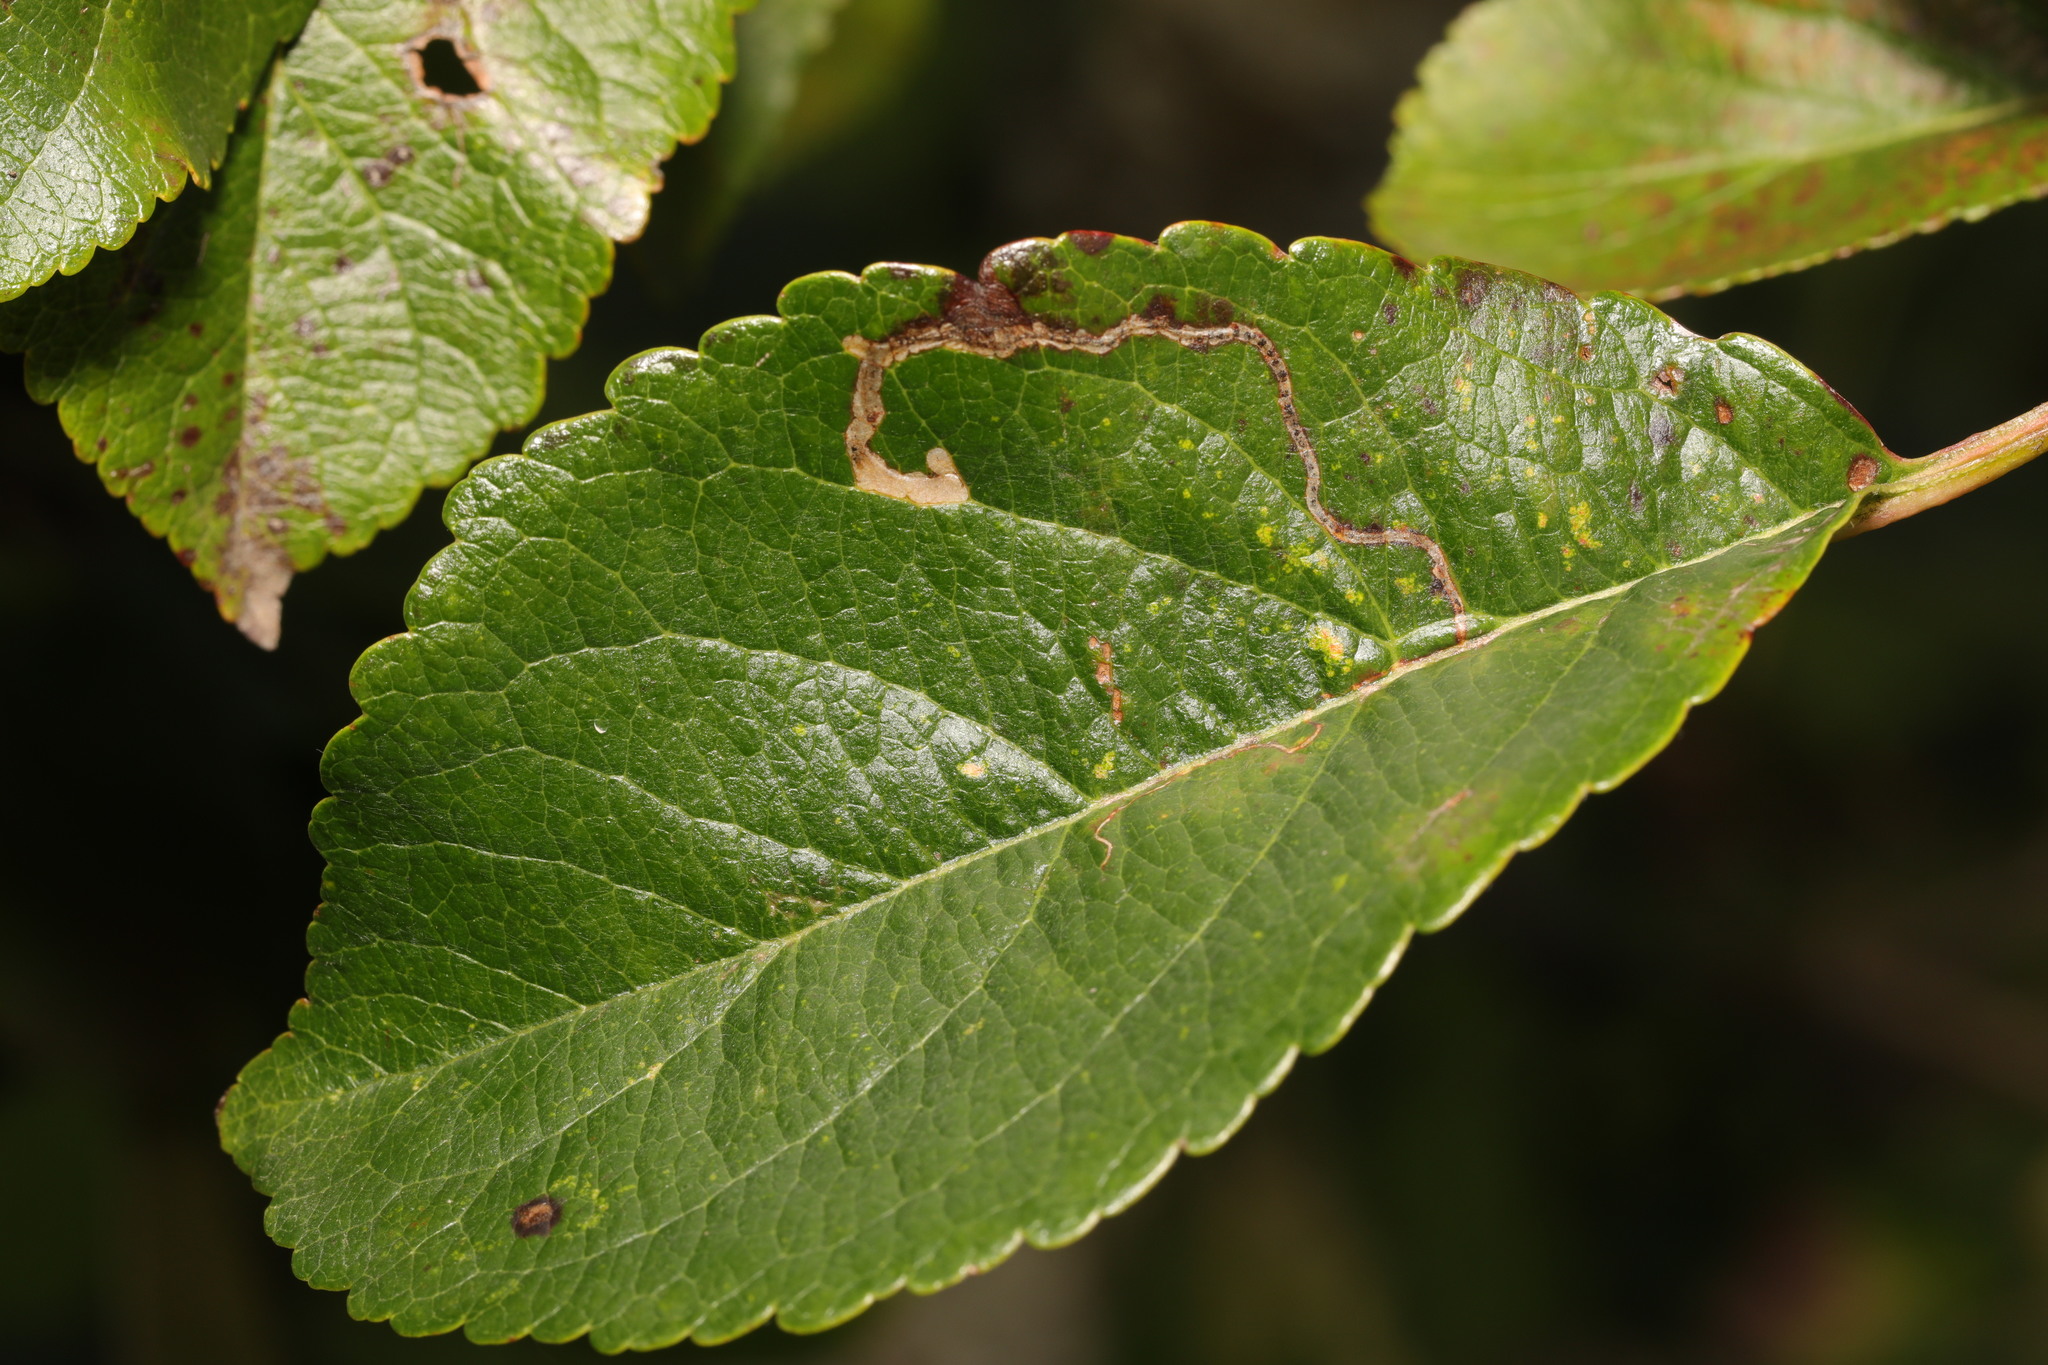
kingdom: Animalia
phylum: Arthropoda
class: Insecta
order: Lepidoptera
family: Lyonetiidae
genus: Lyonetia
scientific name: Lyonetia clerkella
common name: Apple leaf miner
